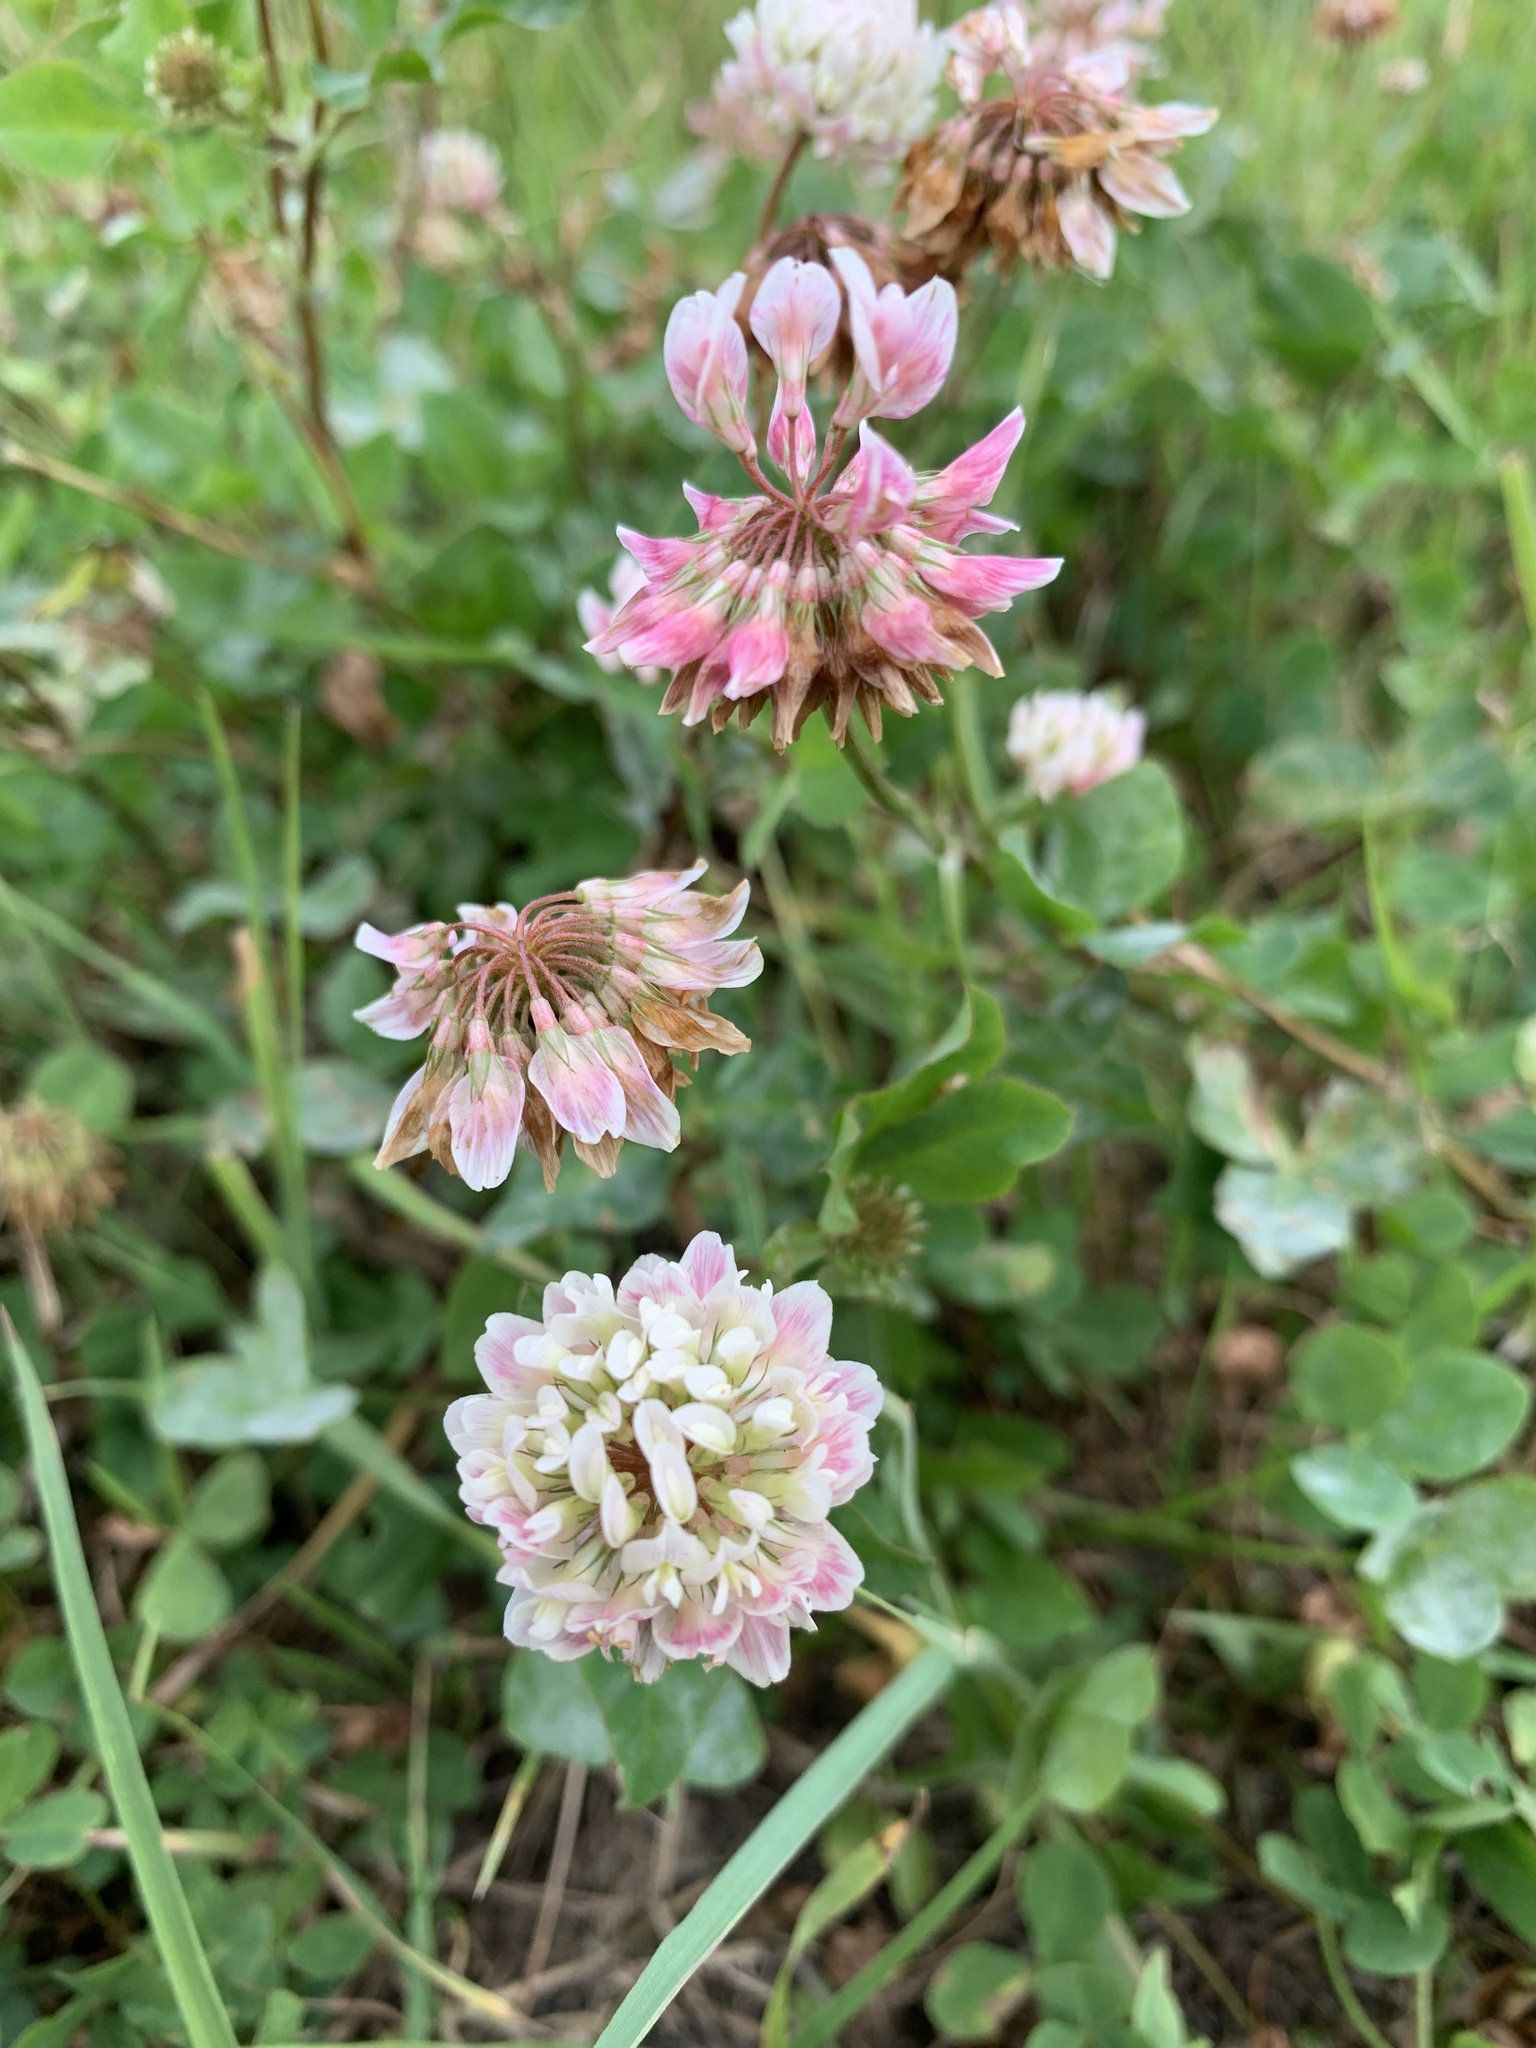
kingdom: Plantae
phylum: Tracheophyta
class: Magnoliopsida
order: Fabales
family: Fabaceae
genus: Trifolium
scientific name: Trifolium hybridum
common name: Alsike clover
